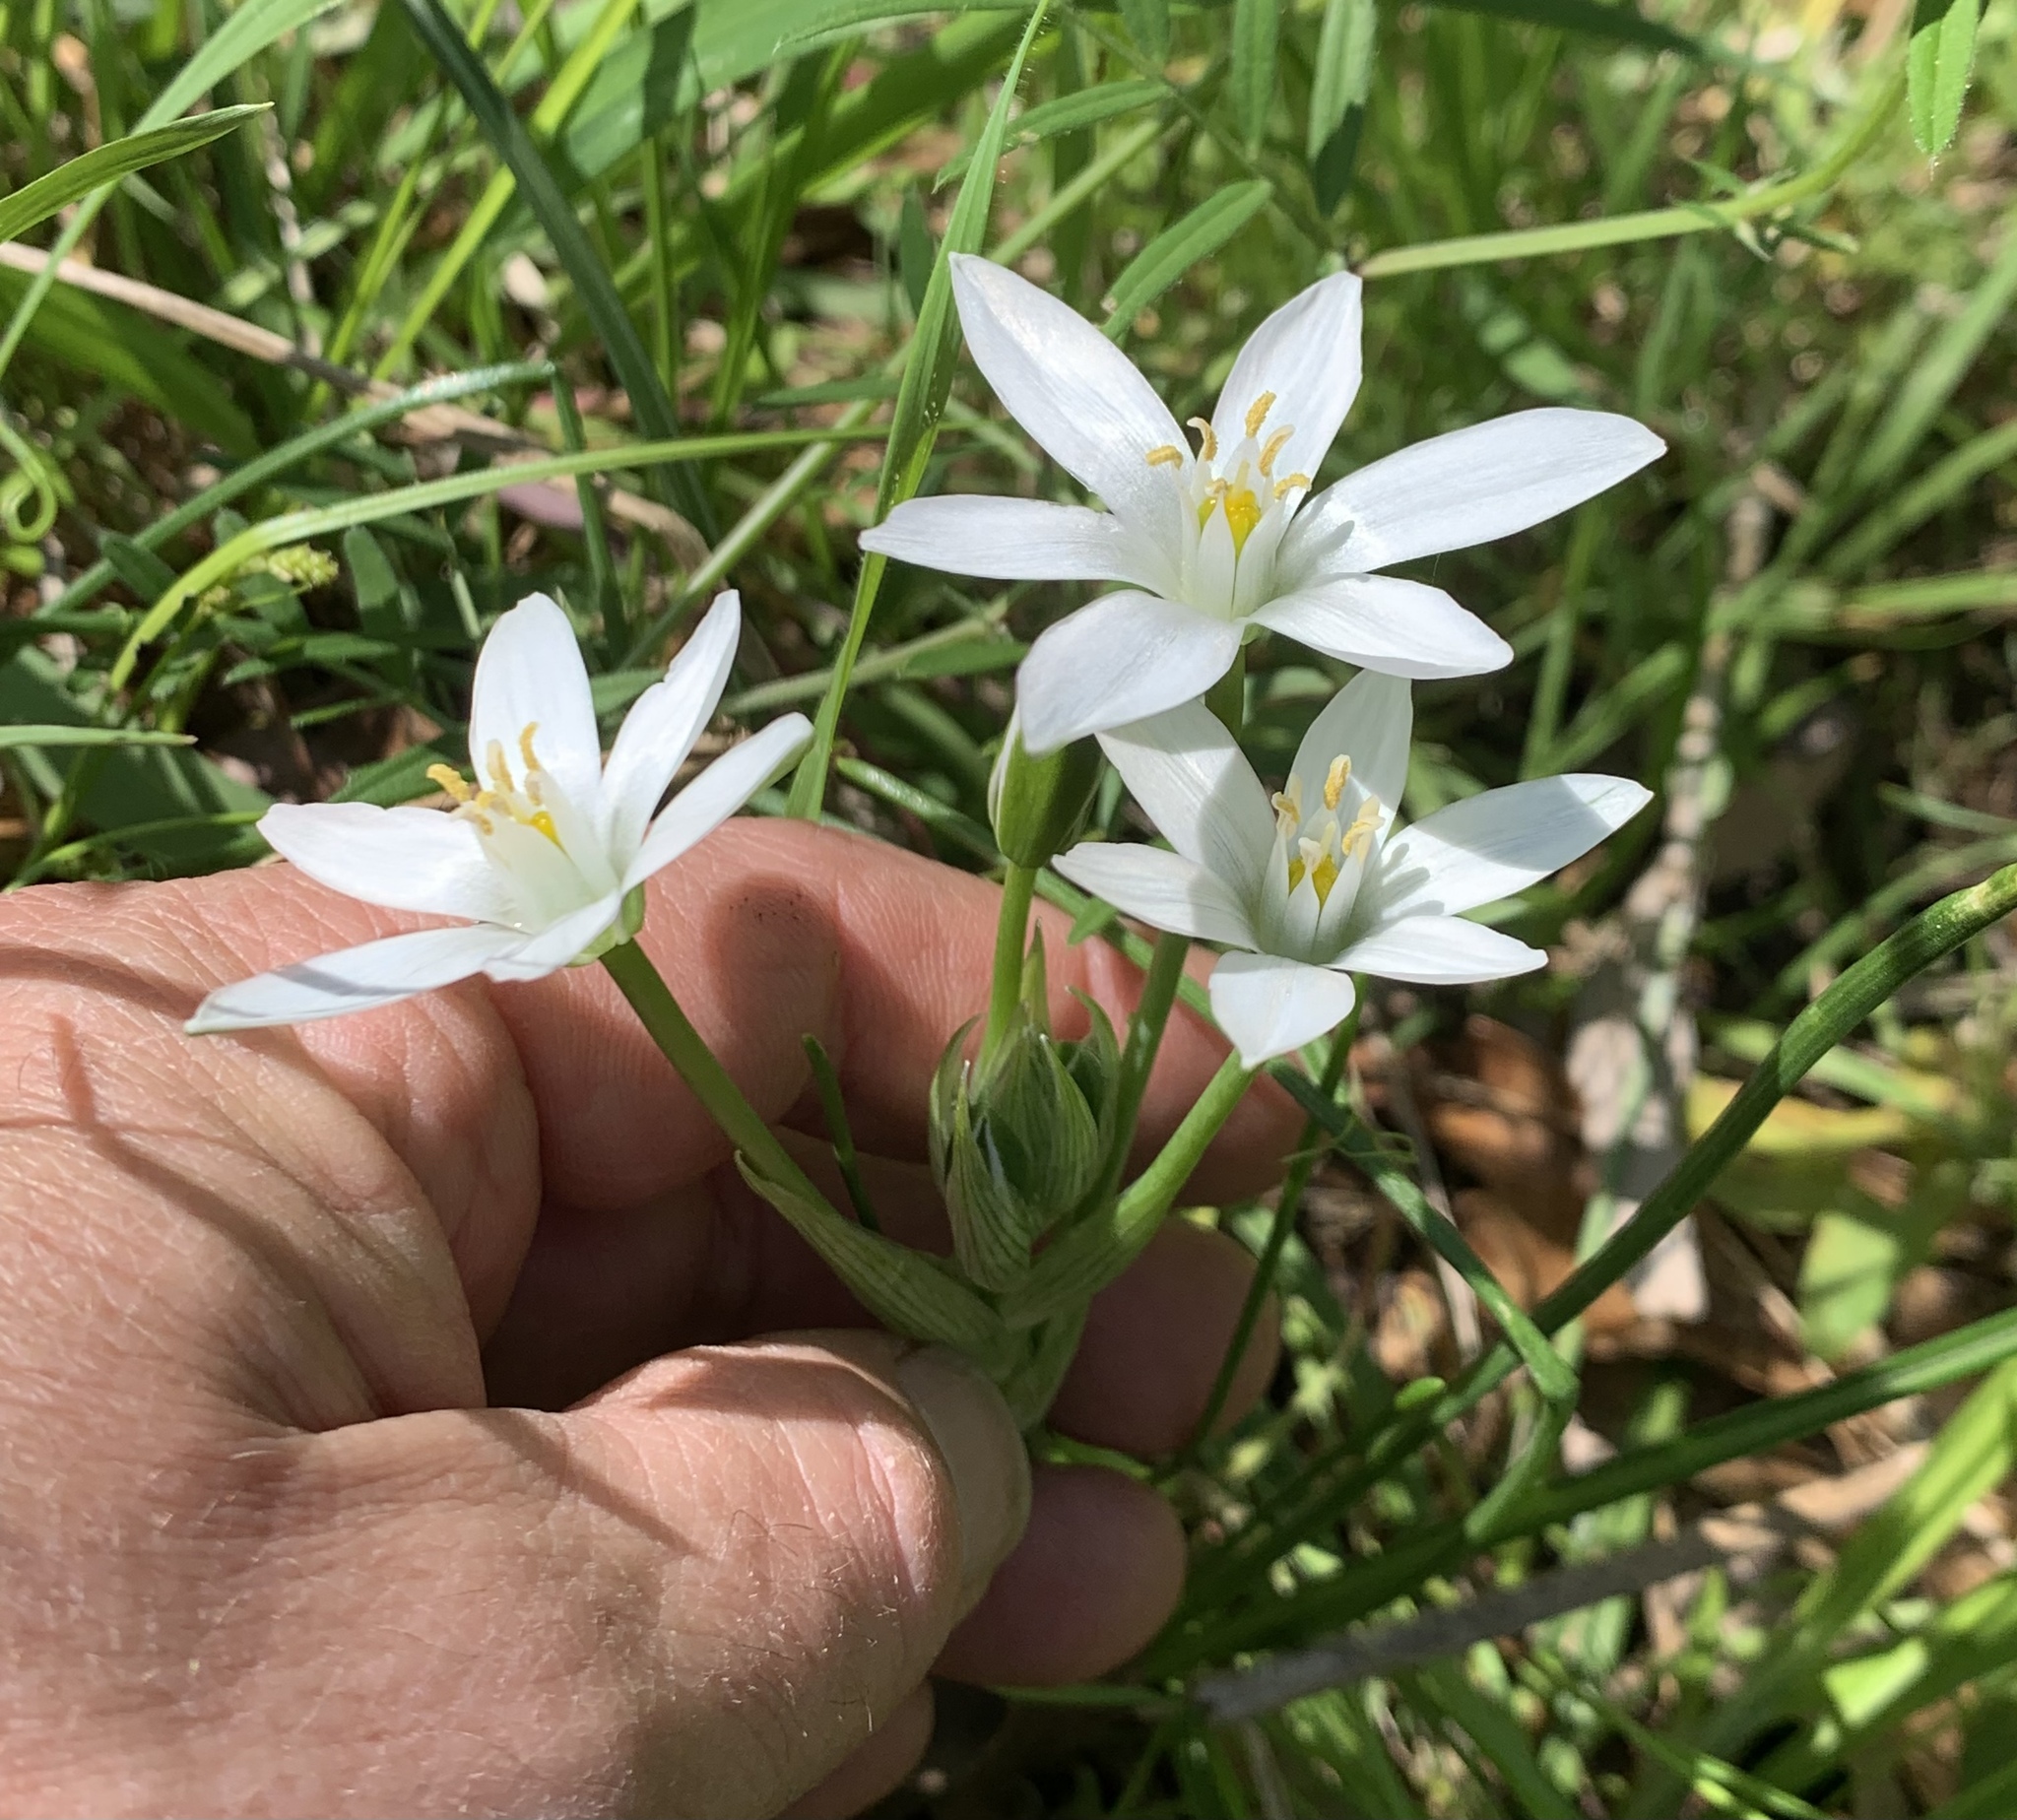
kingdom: Plantae
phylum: Tracheophyta
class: Liliopsida
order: Asparagales
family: Asparagaceae
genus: Ornithogalum
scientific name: Ornithogalum umbellatum
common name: Garden star-of-bethlehem
